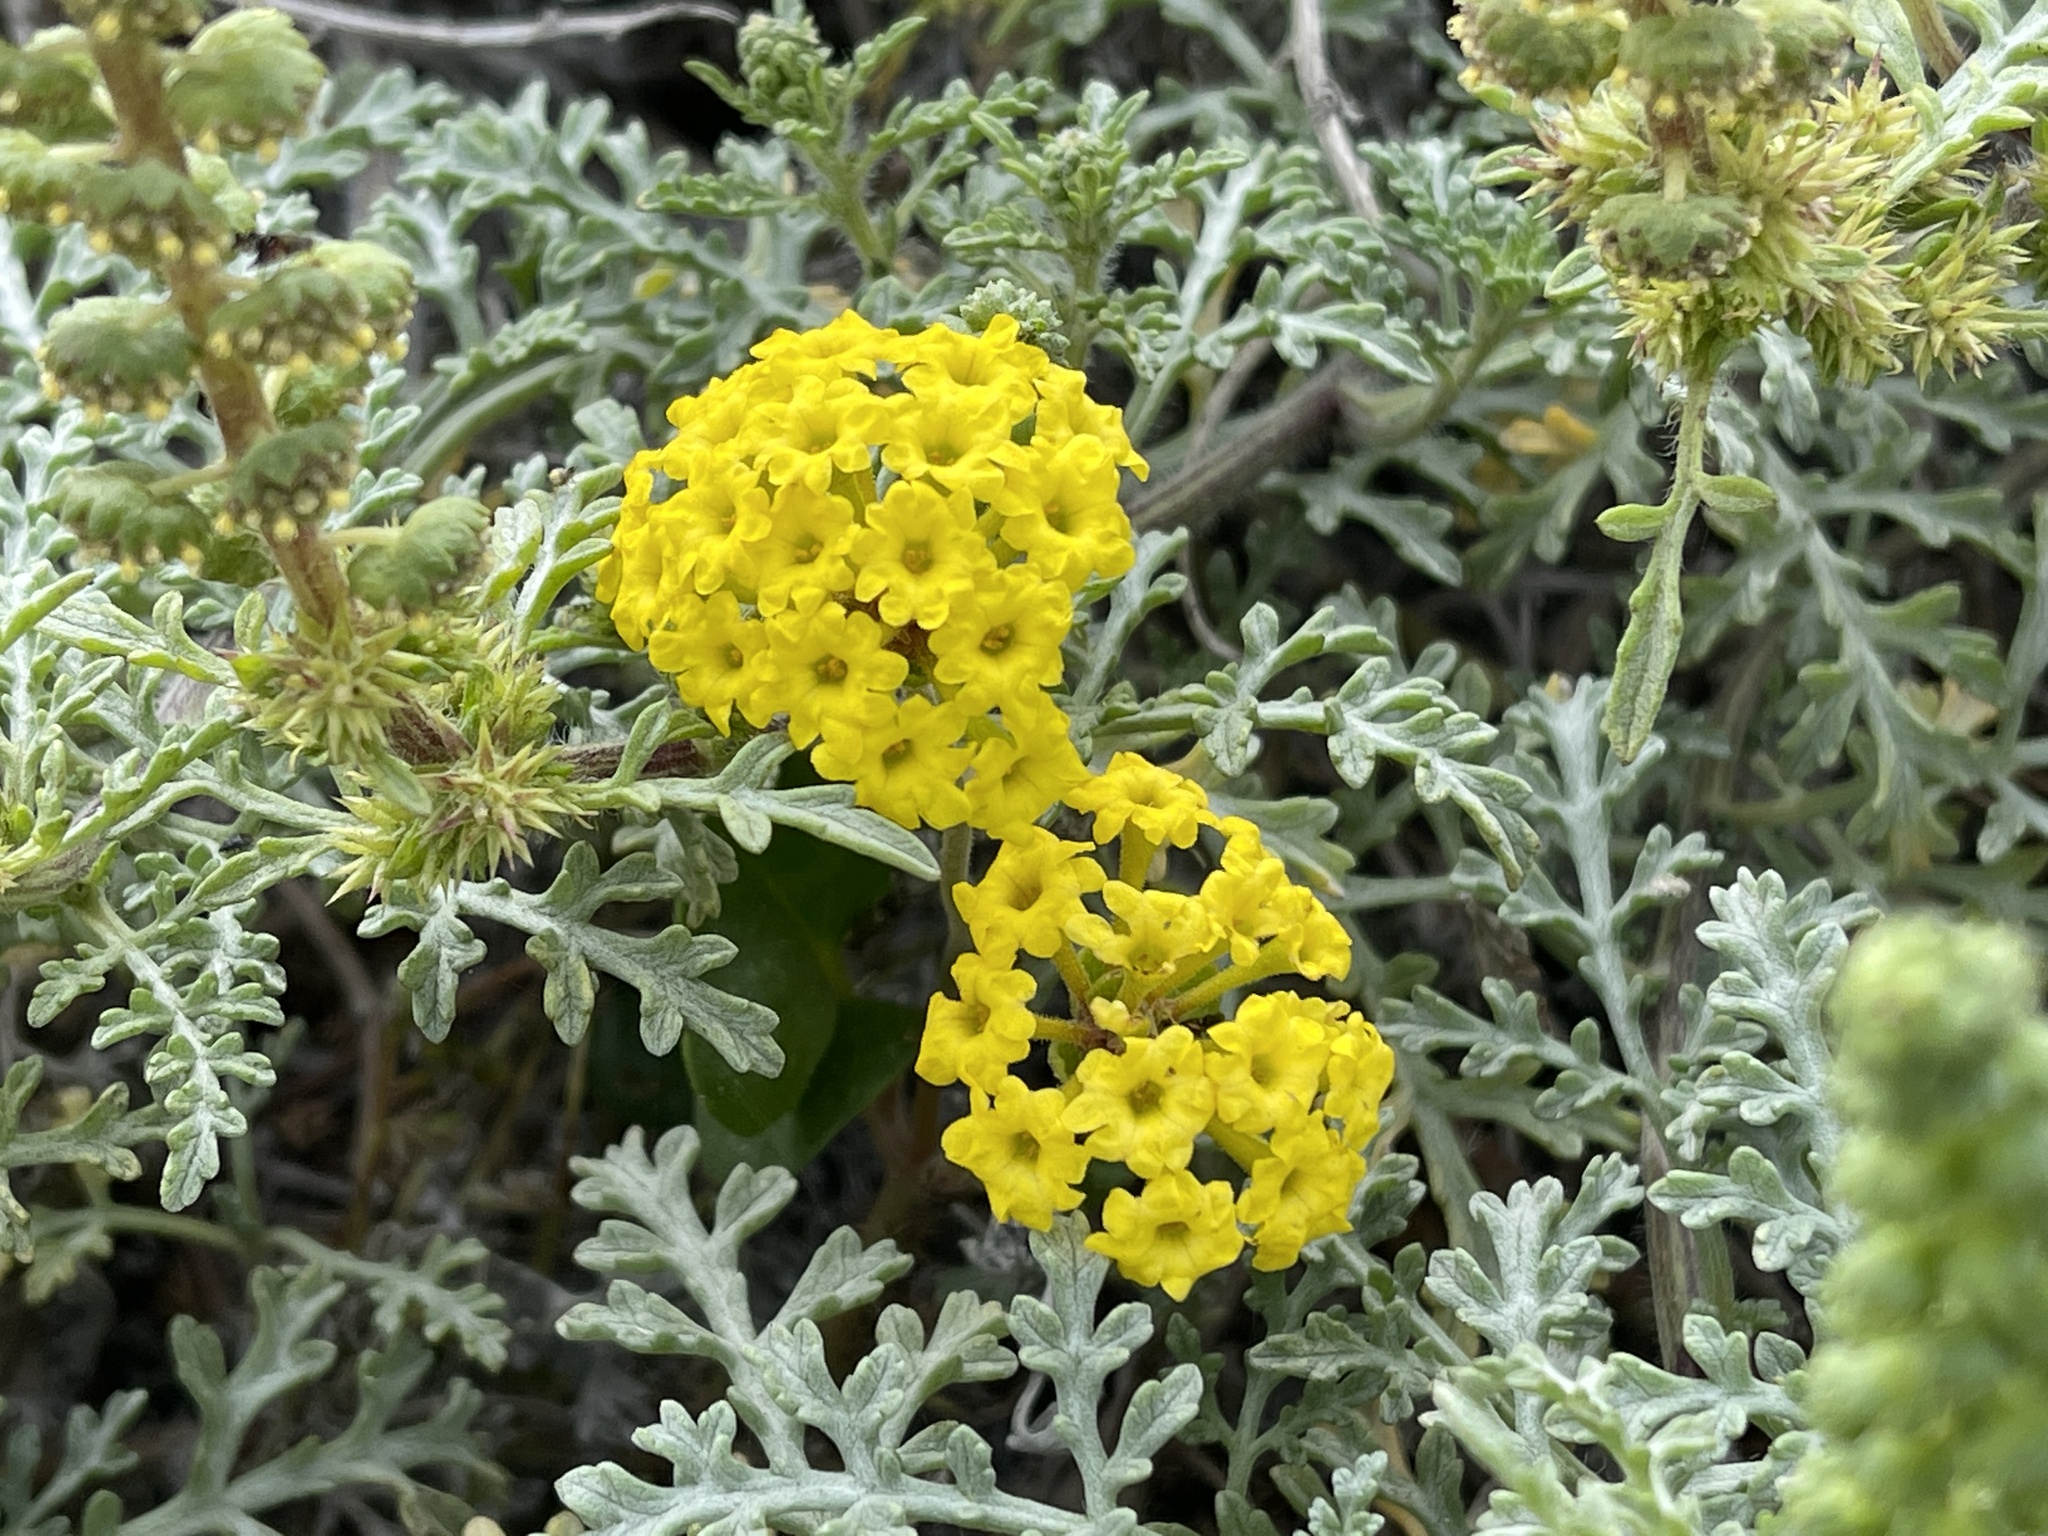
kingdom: Plantae
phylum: Tracheophyta
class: Magnoliopsida
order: Caryophyllales
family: Nyctaginaceae
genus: Abronia
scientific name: Abronia latifolia
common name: Yellow sand-verbena
